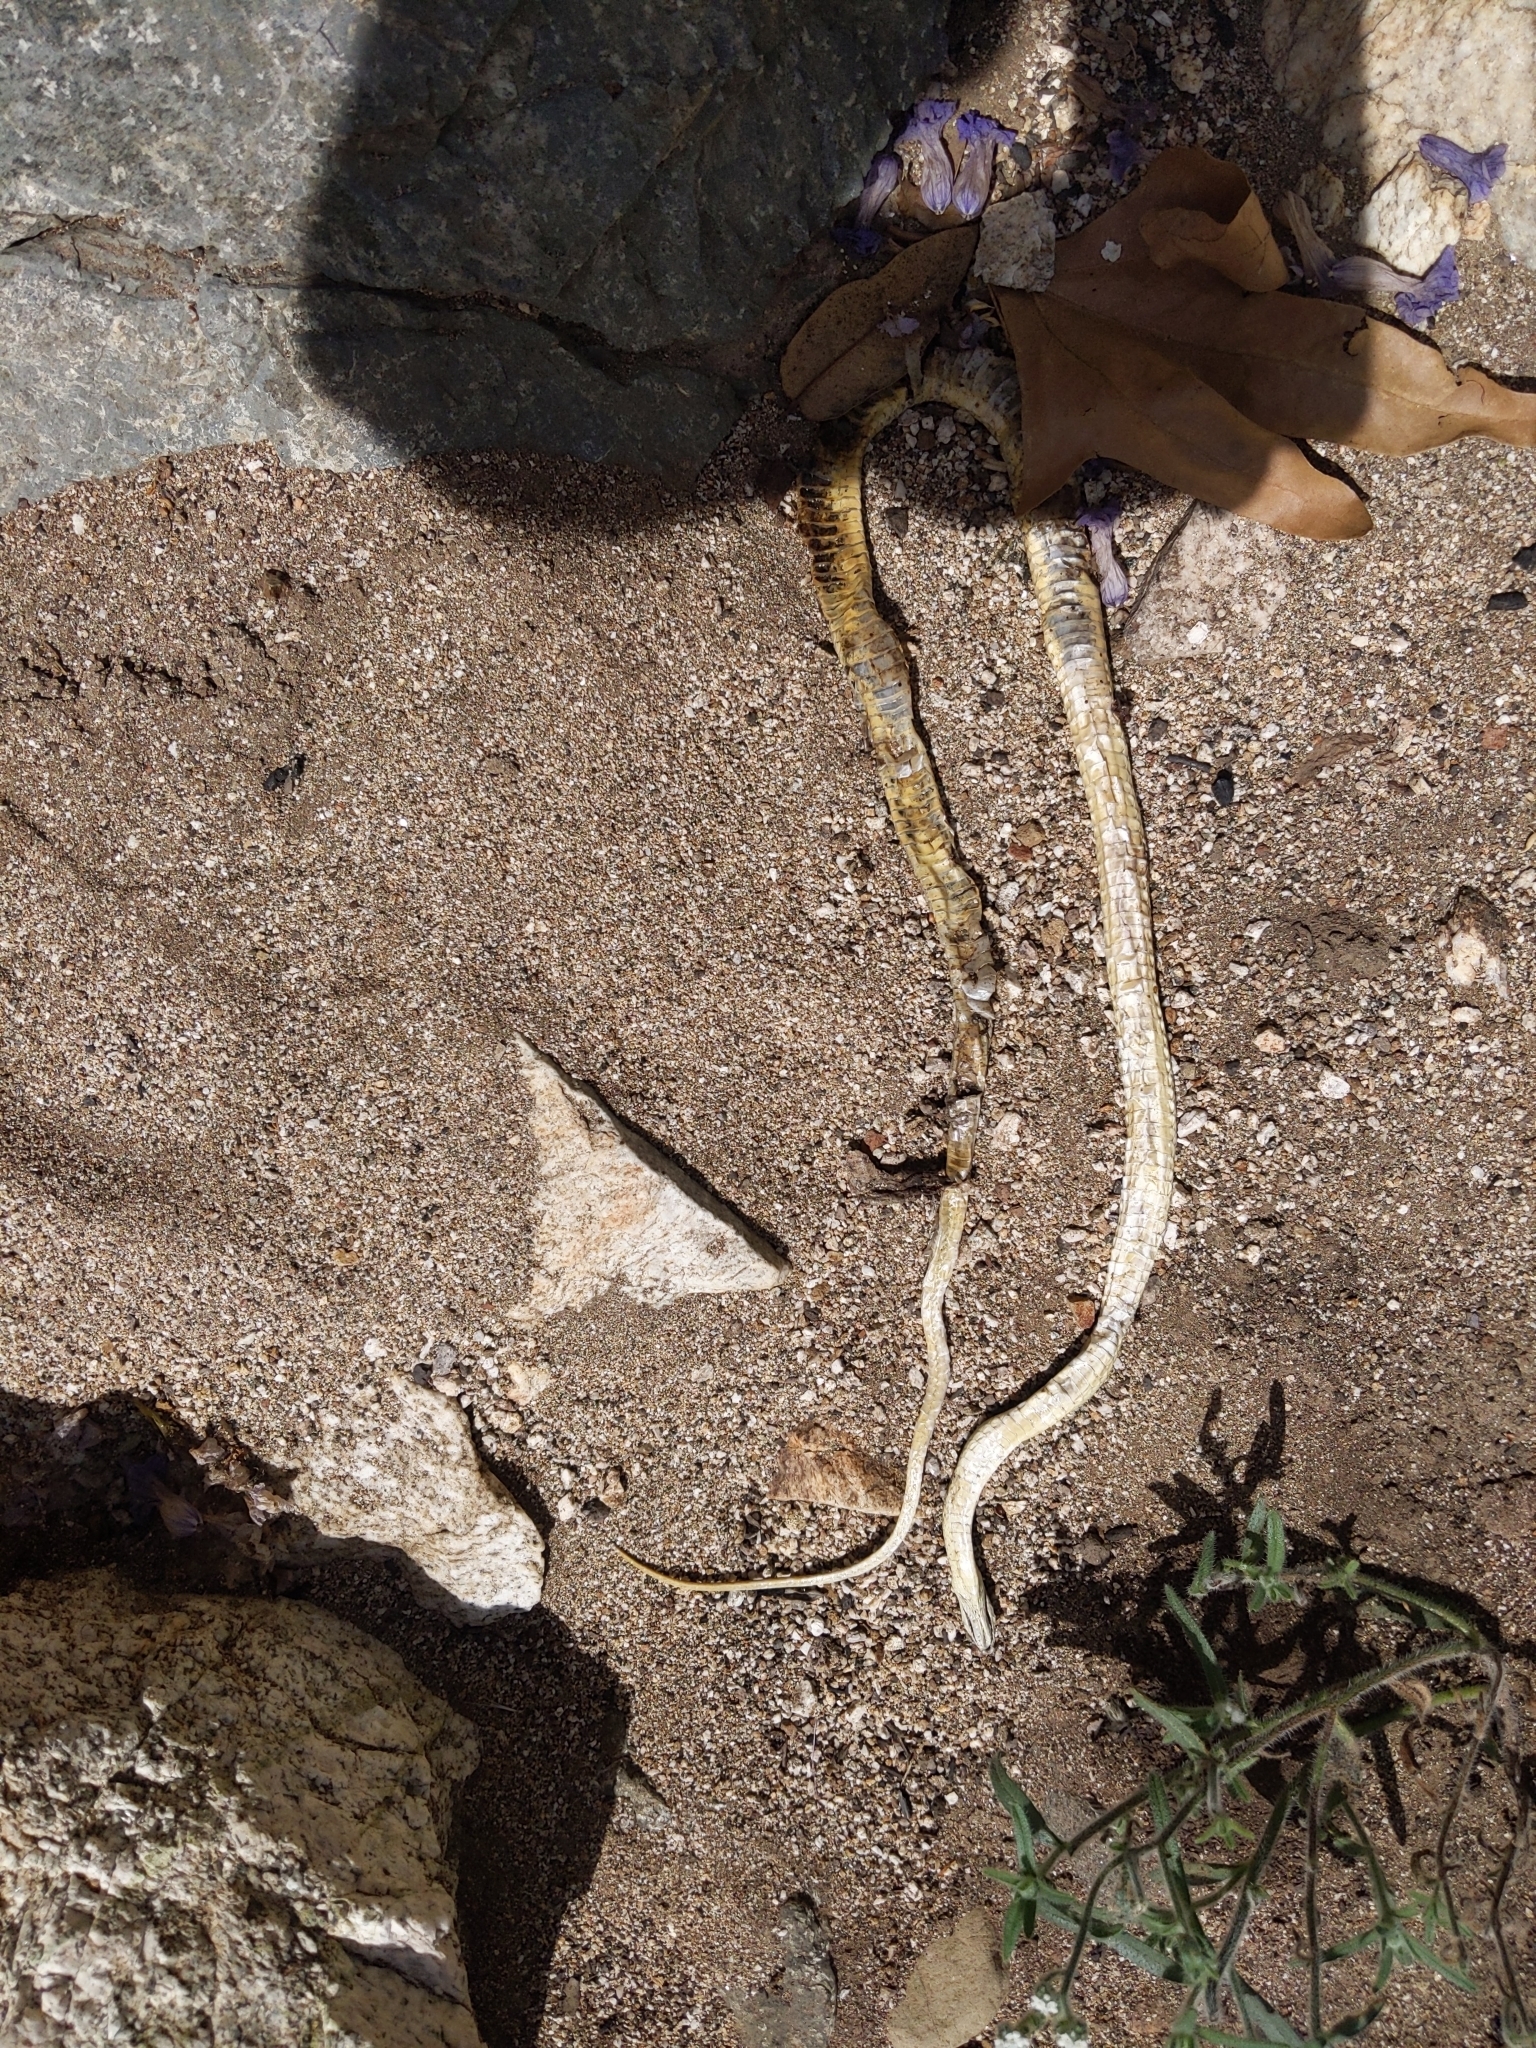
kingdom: Animalia
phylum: Chordata
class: Squamata
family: Colubridae
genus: Salvadora
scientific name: Salvadora hexalepis
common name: Western patchnose snake
